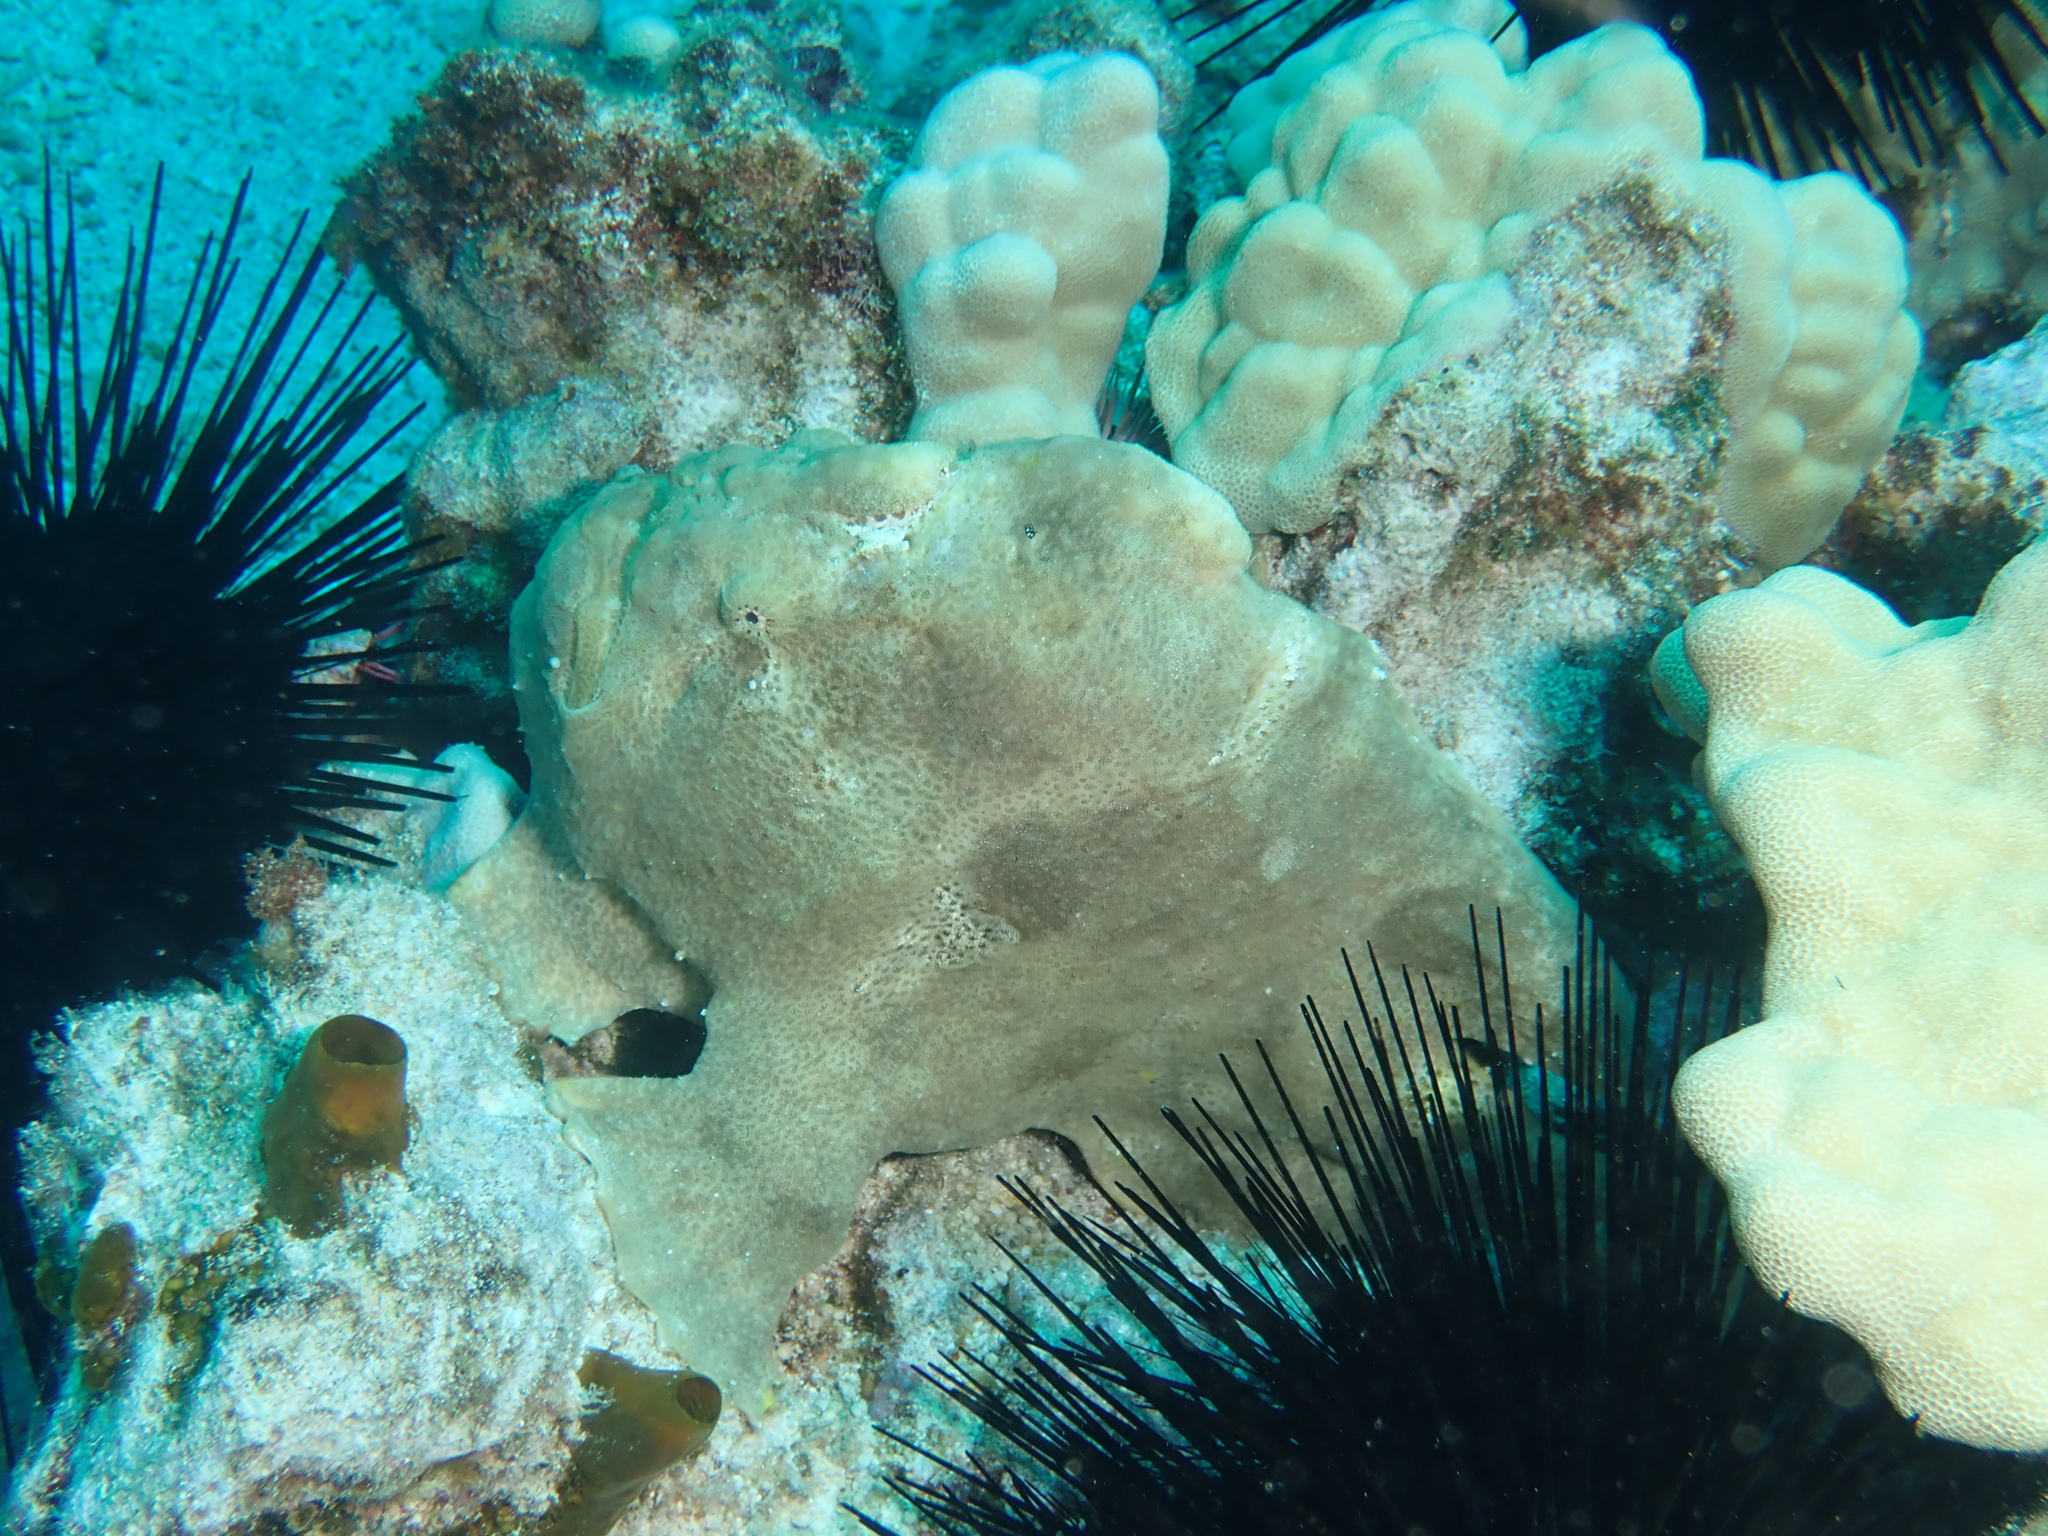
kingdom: Animalia
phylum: Chordata
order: Lophiiformes
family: Antennariidae
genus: Antennarius
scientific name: Antennarius commerson
